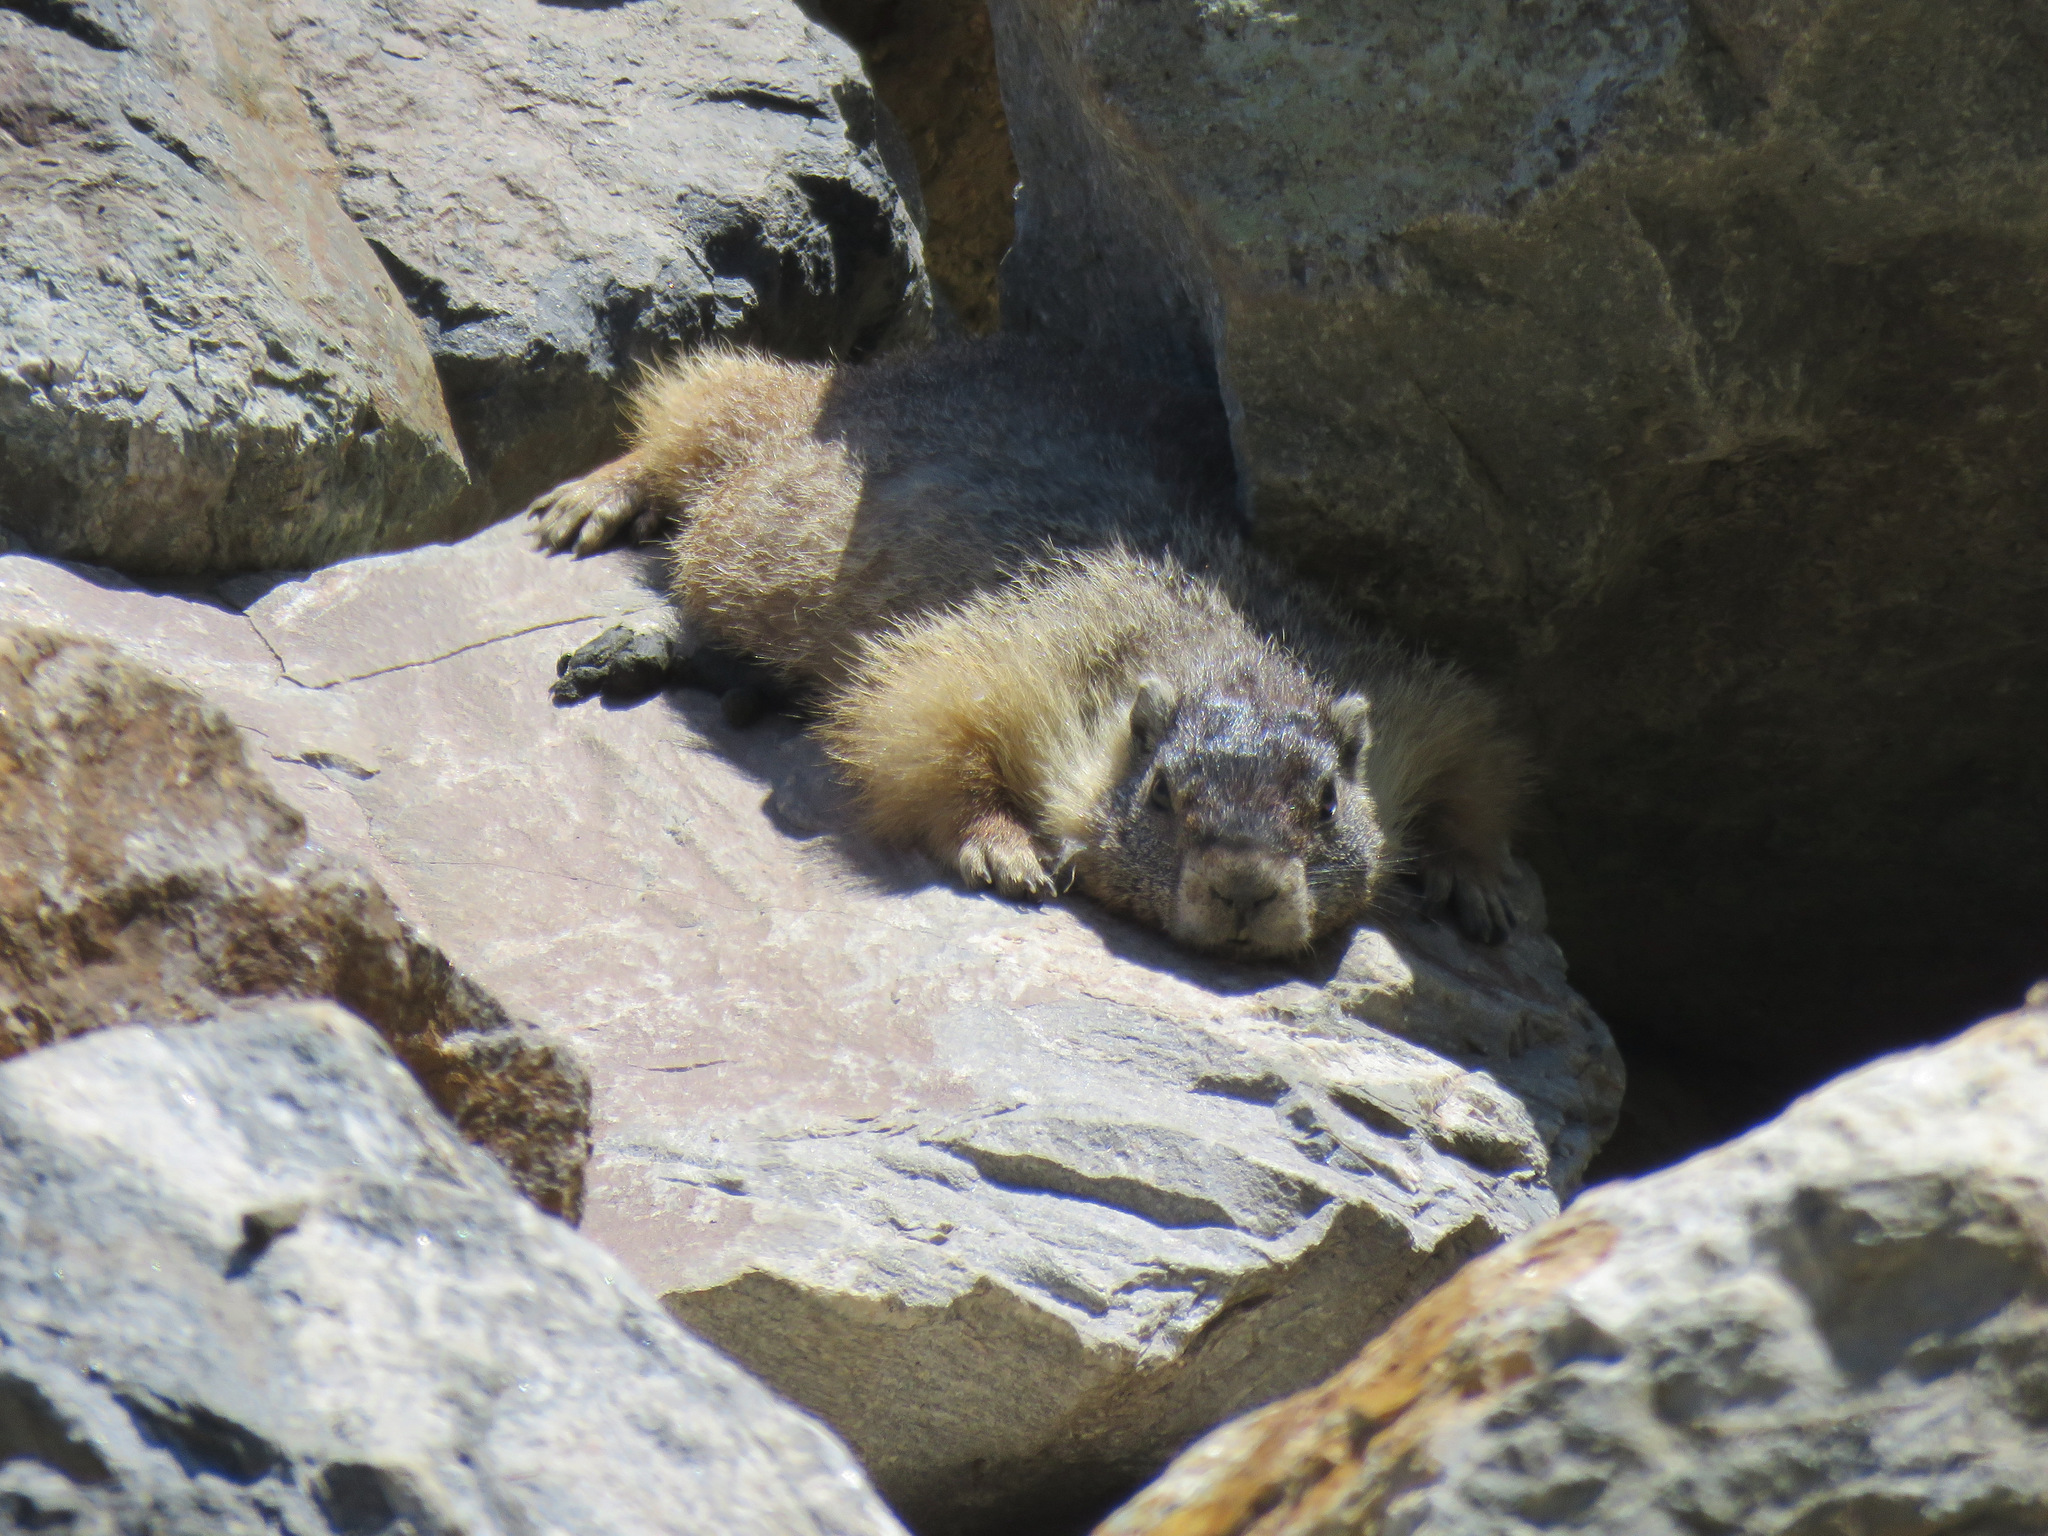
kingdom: Animalia
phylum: Chordata
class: Mammalia
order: Rodentia
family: Sciuridae
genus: Marmota
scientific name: Marmota flaviventris
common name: Yellow-bellied marmot
